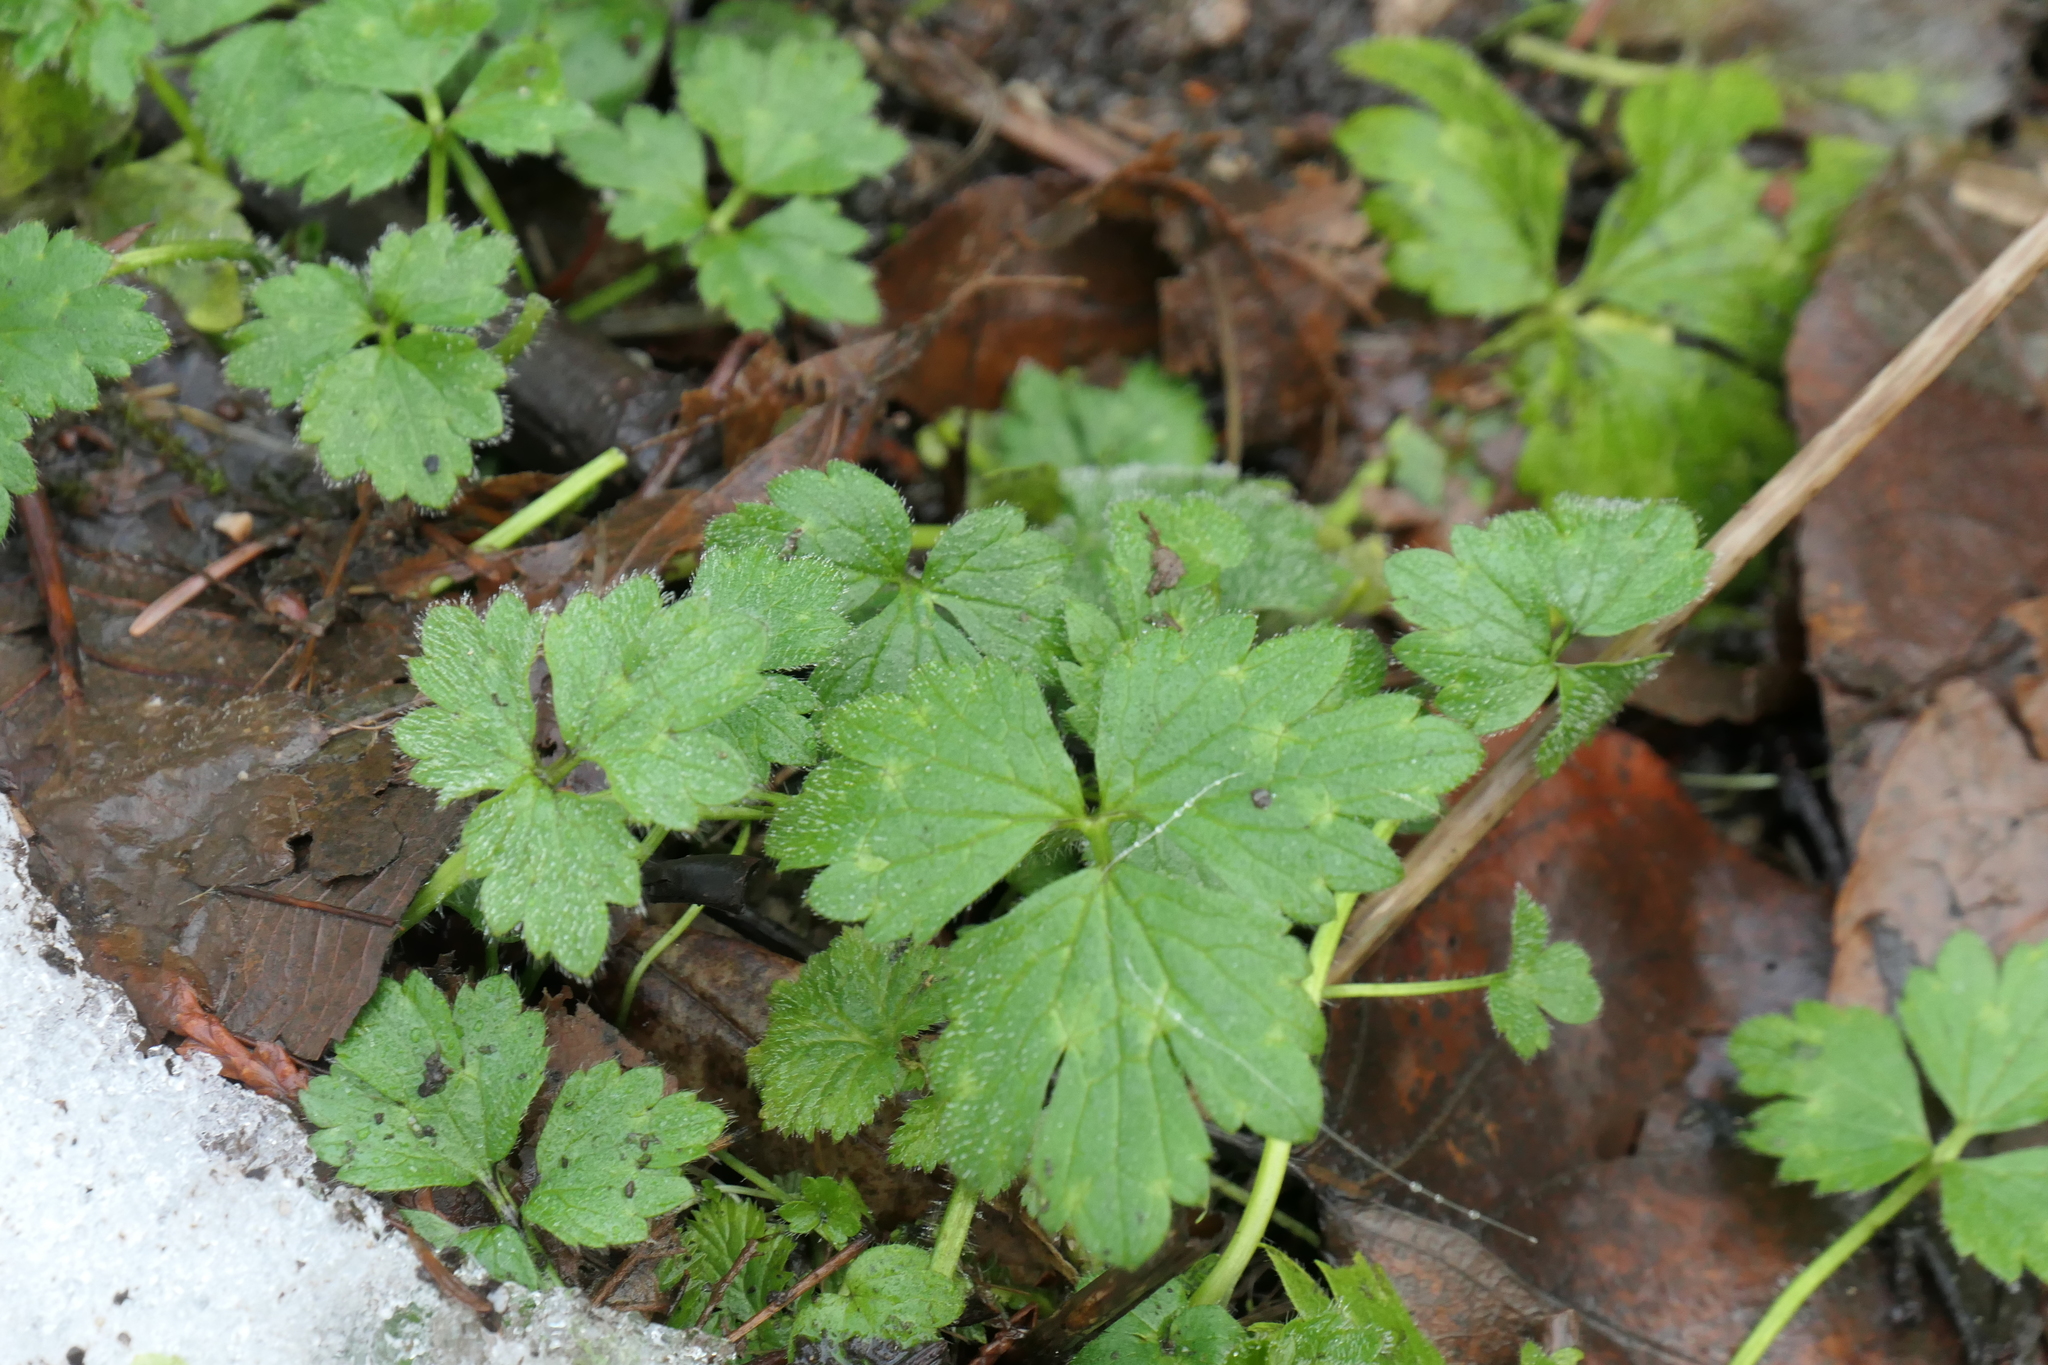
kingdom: Plantae
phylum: Tracheophyta
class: Magnoliopsida
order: Ranunculales
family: Ranunculaceae
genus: Ranunculus
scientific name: Ranunculus repens
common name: Creeping buttercup
